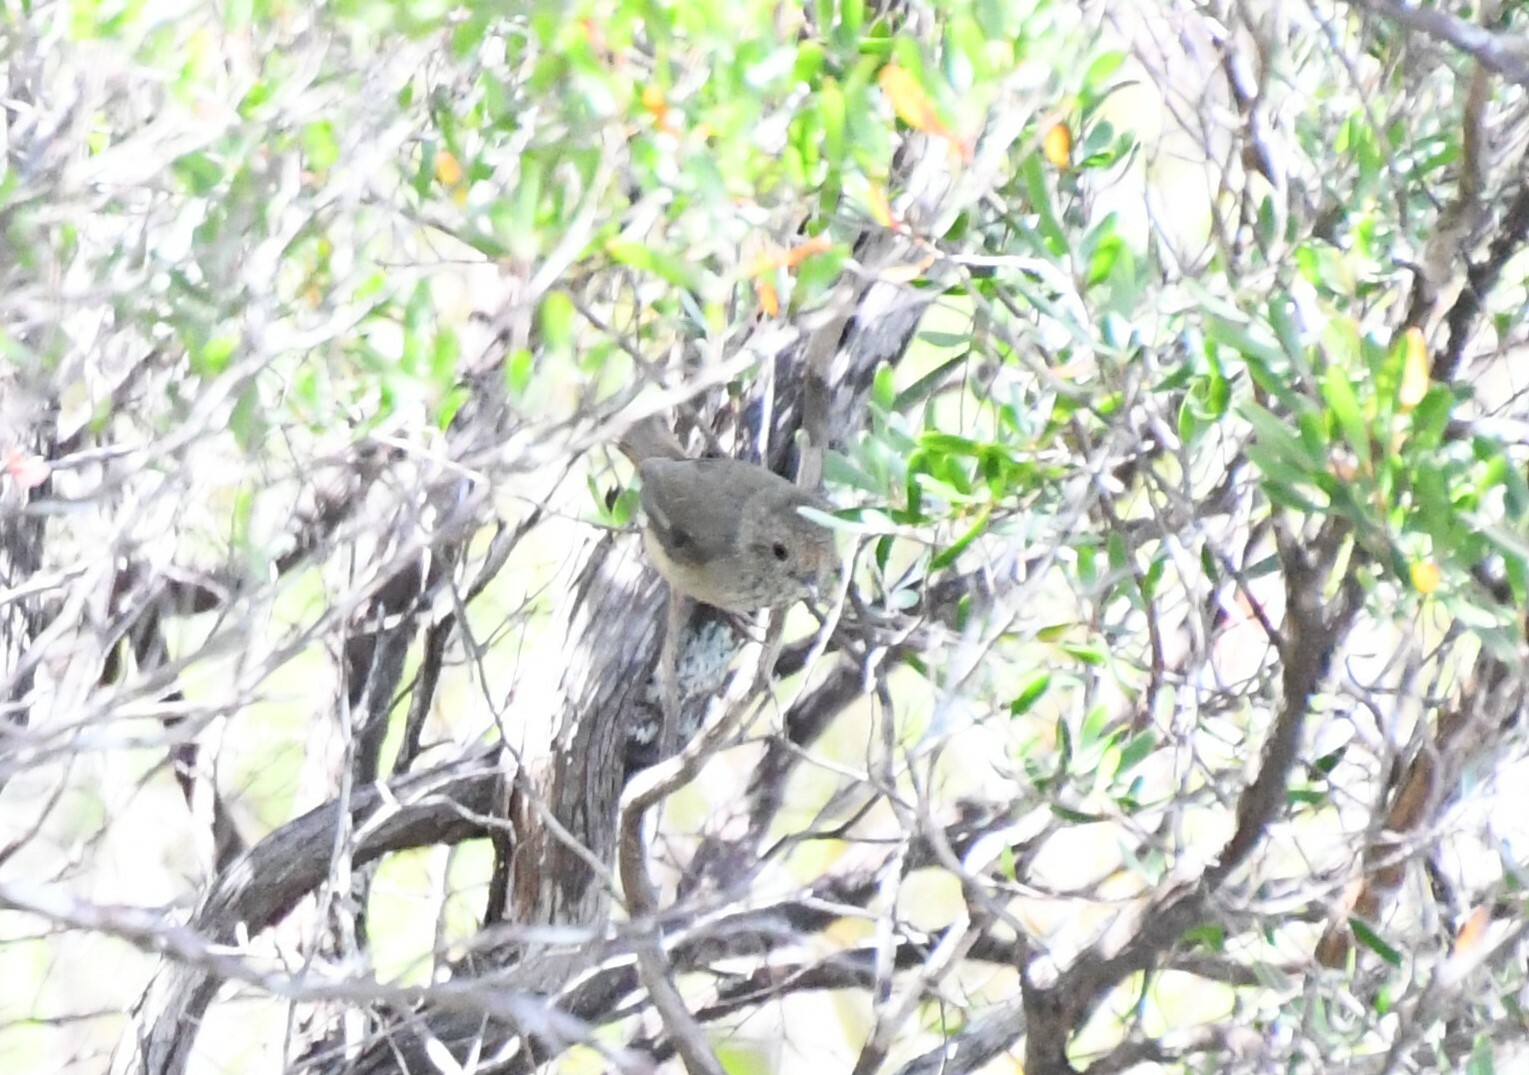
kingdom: Animalia
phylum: Chordata
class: Aves
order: Passeriformes
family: Acanthizidae
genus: Acanthiza
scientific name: Acanthiza pusilla
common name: Brown thornbill
